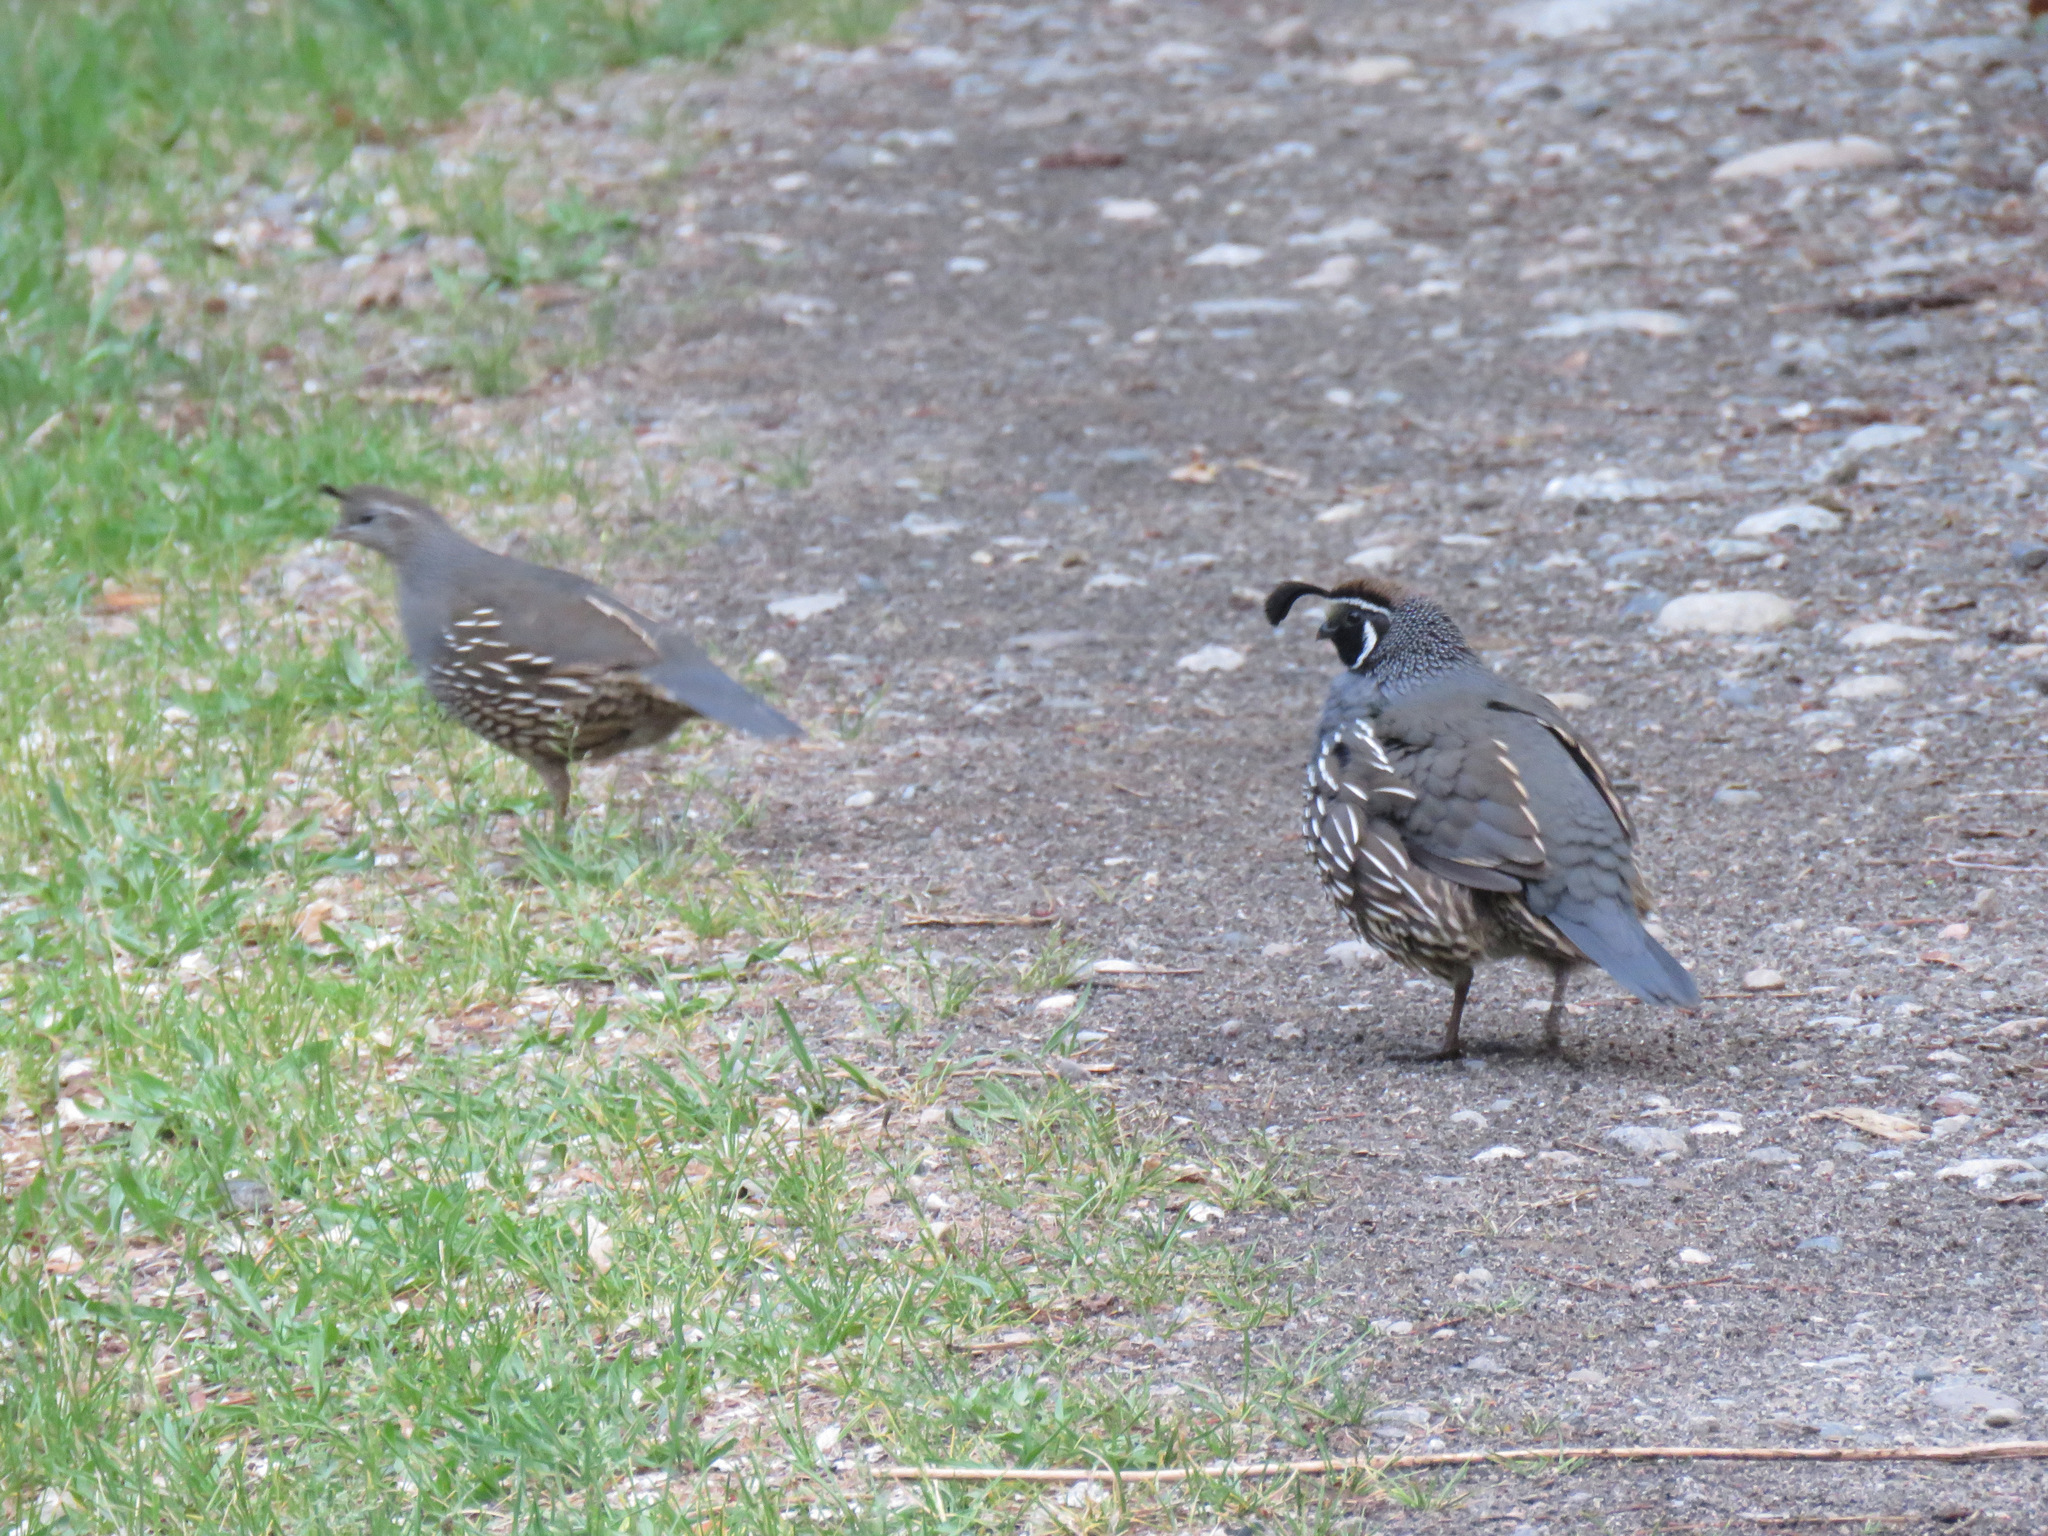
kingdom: Animalia
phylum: Chordata
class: Aves
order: Galliformes
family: Odontophoridae
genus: Callipepla
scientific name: Callipepla californica
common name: California quail
